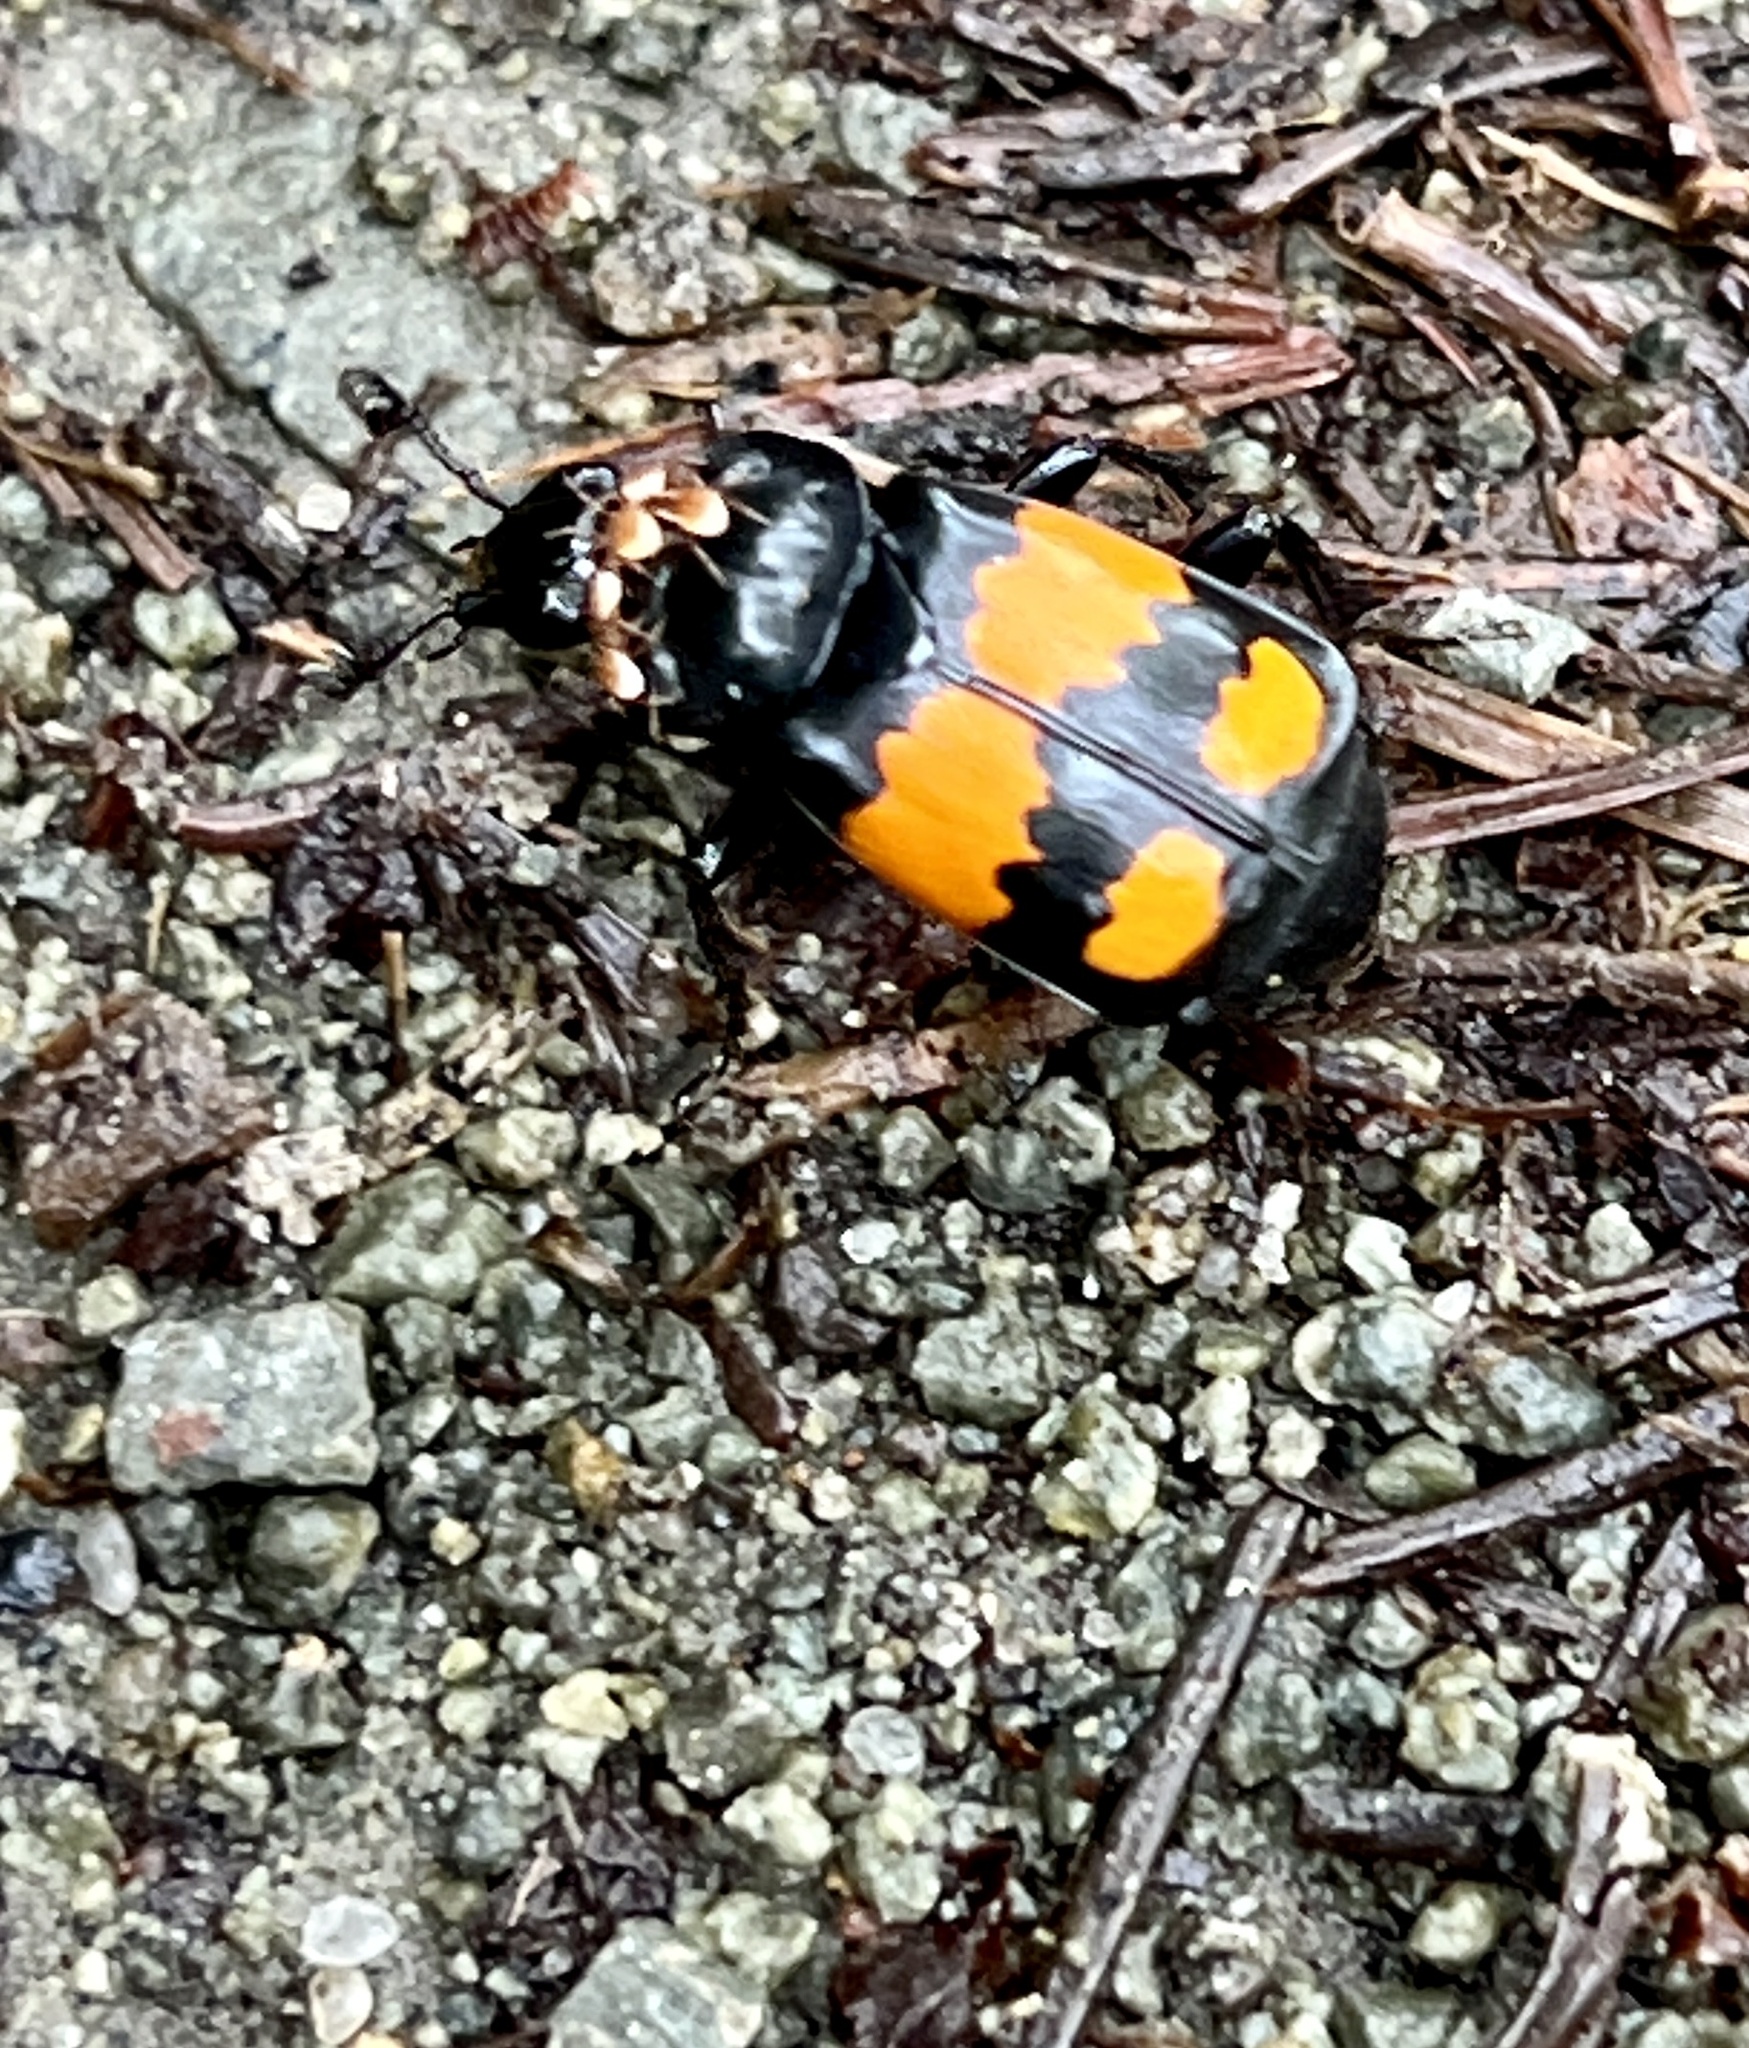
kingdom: Animalia
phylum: Arthropoda
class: Insecta
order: Coleoptera
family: Staphylinidae
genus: Nicrophorus
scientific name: Nicrophorus vespilloides
